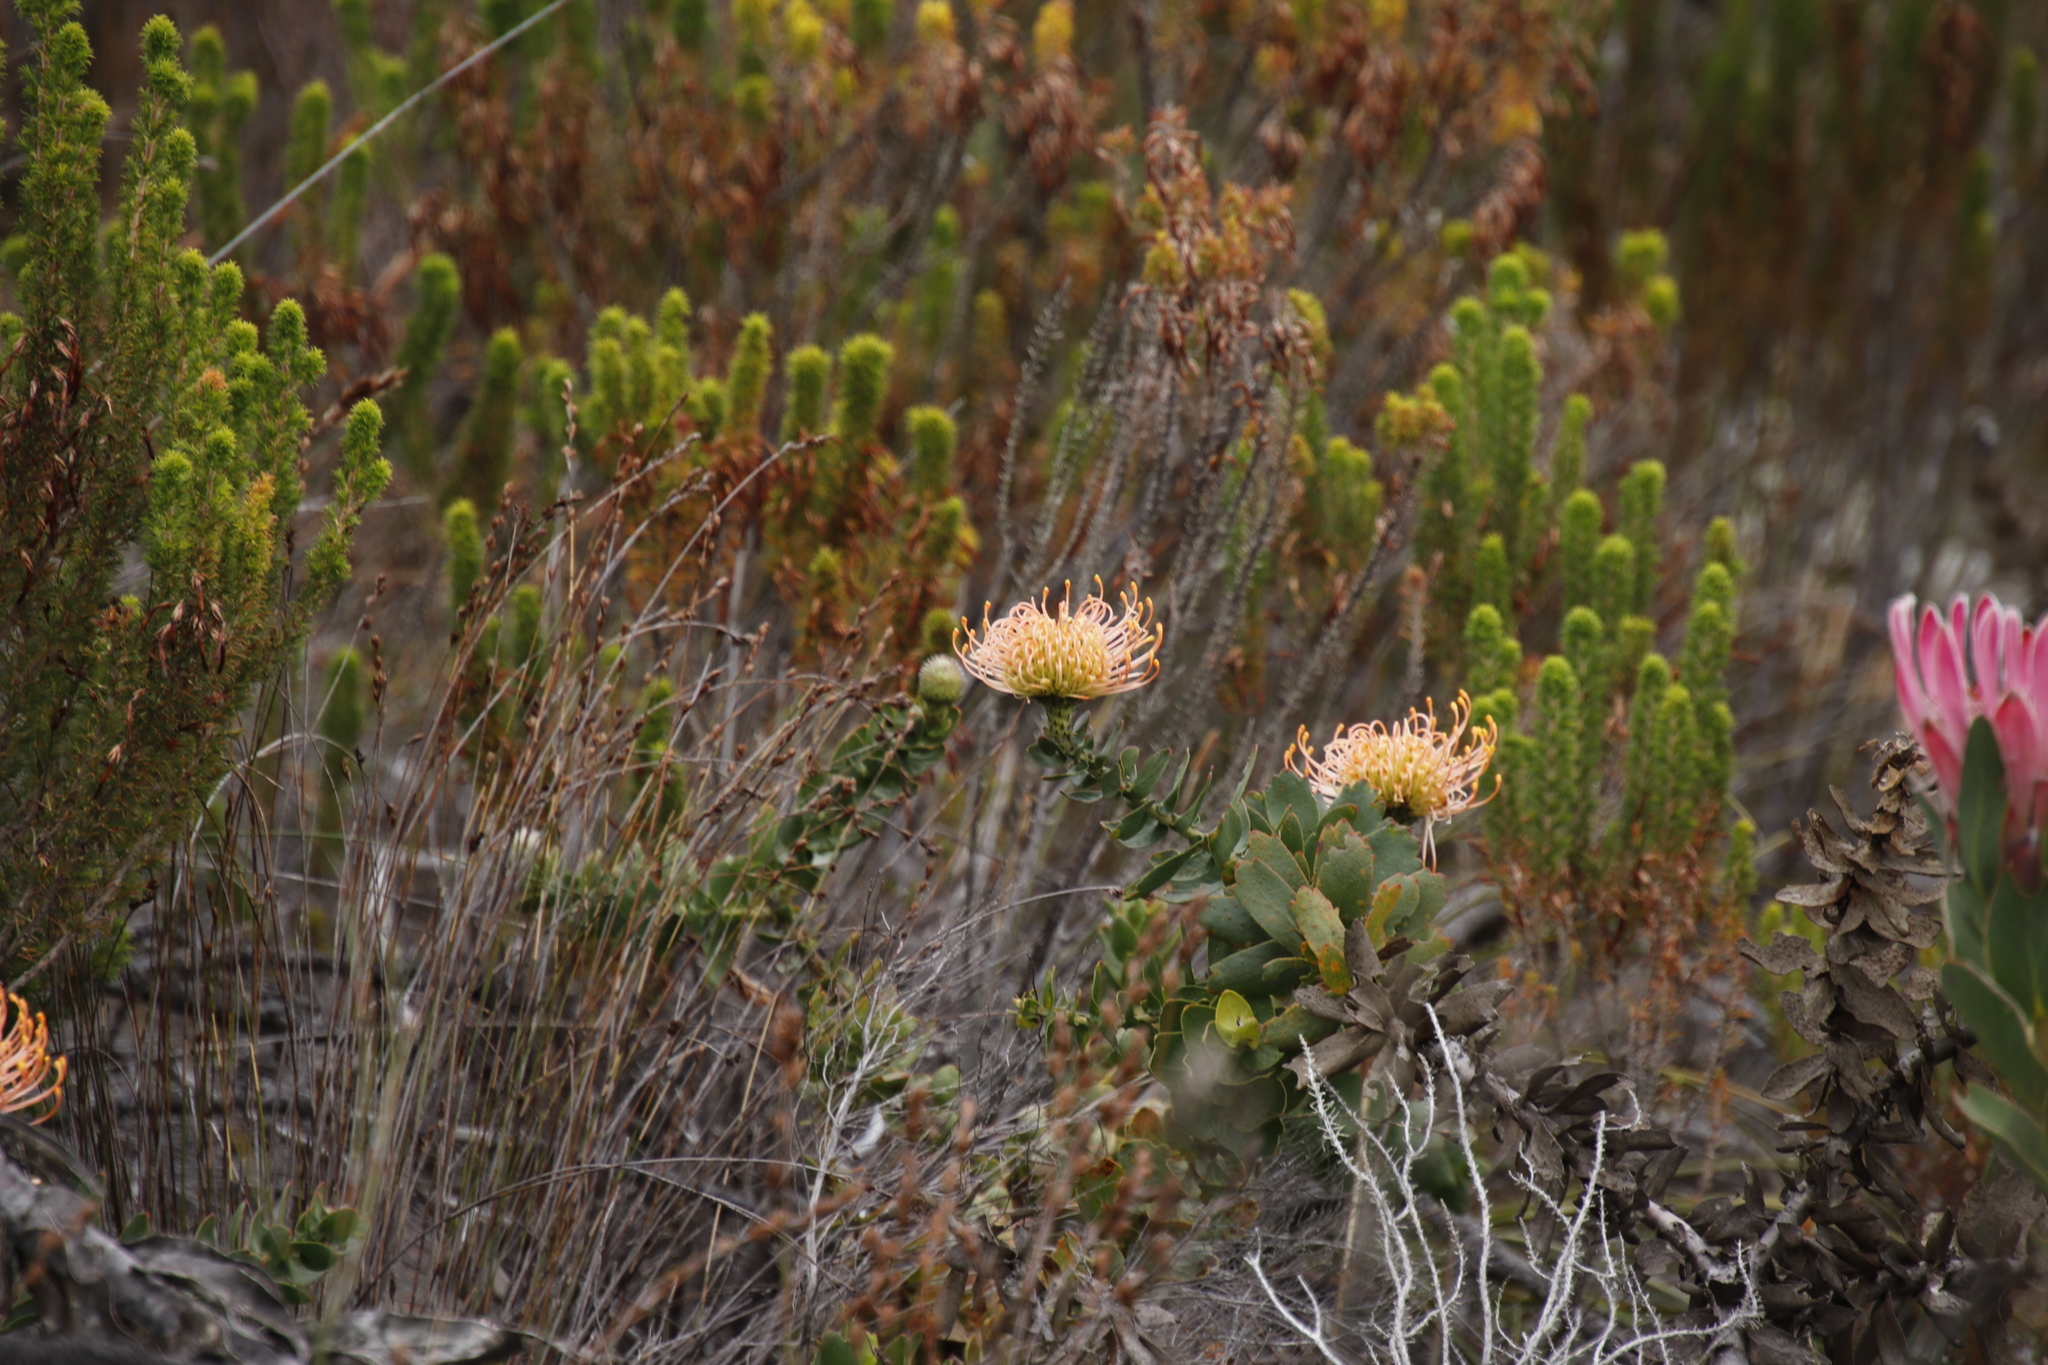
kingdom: Plantae
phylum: Tracheophyta
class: Magnoliopsida
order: Proteales
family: Proteaceae
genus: Leucospermum
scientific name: Leucospermum cordifolium
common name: Red pincushion-protea
